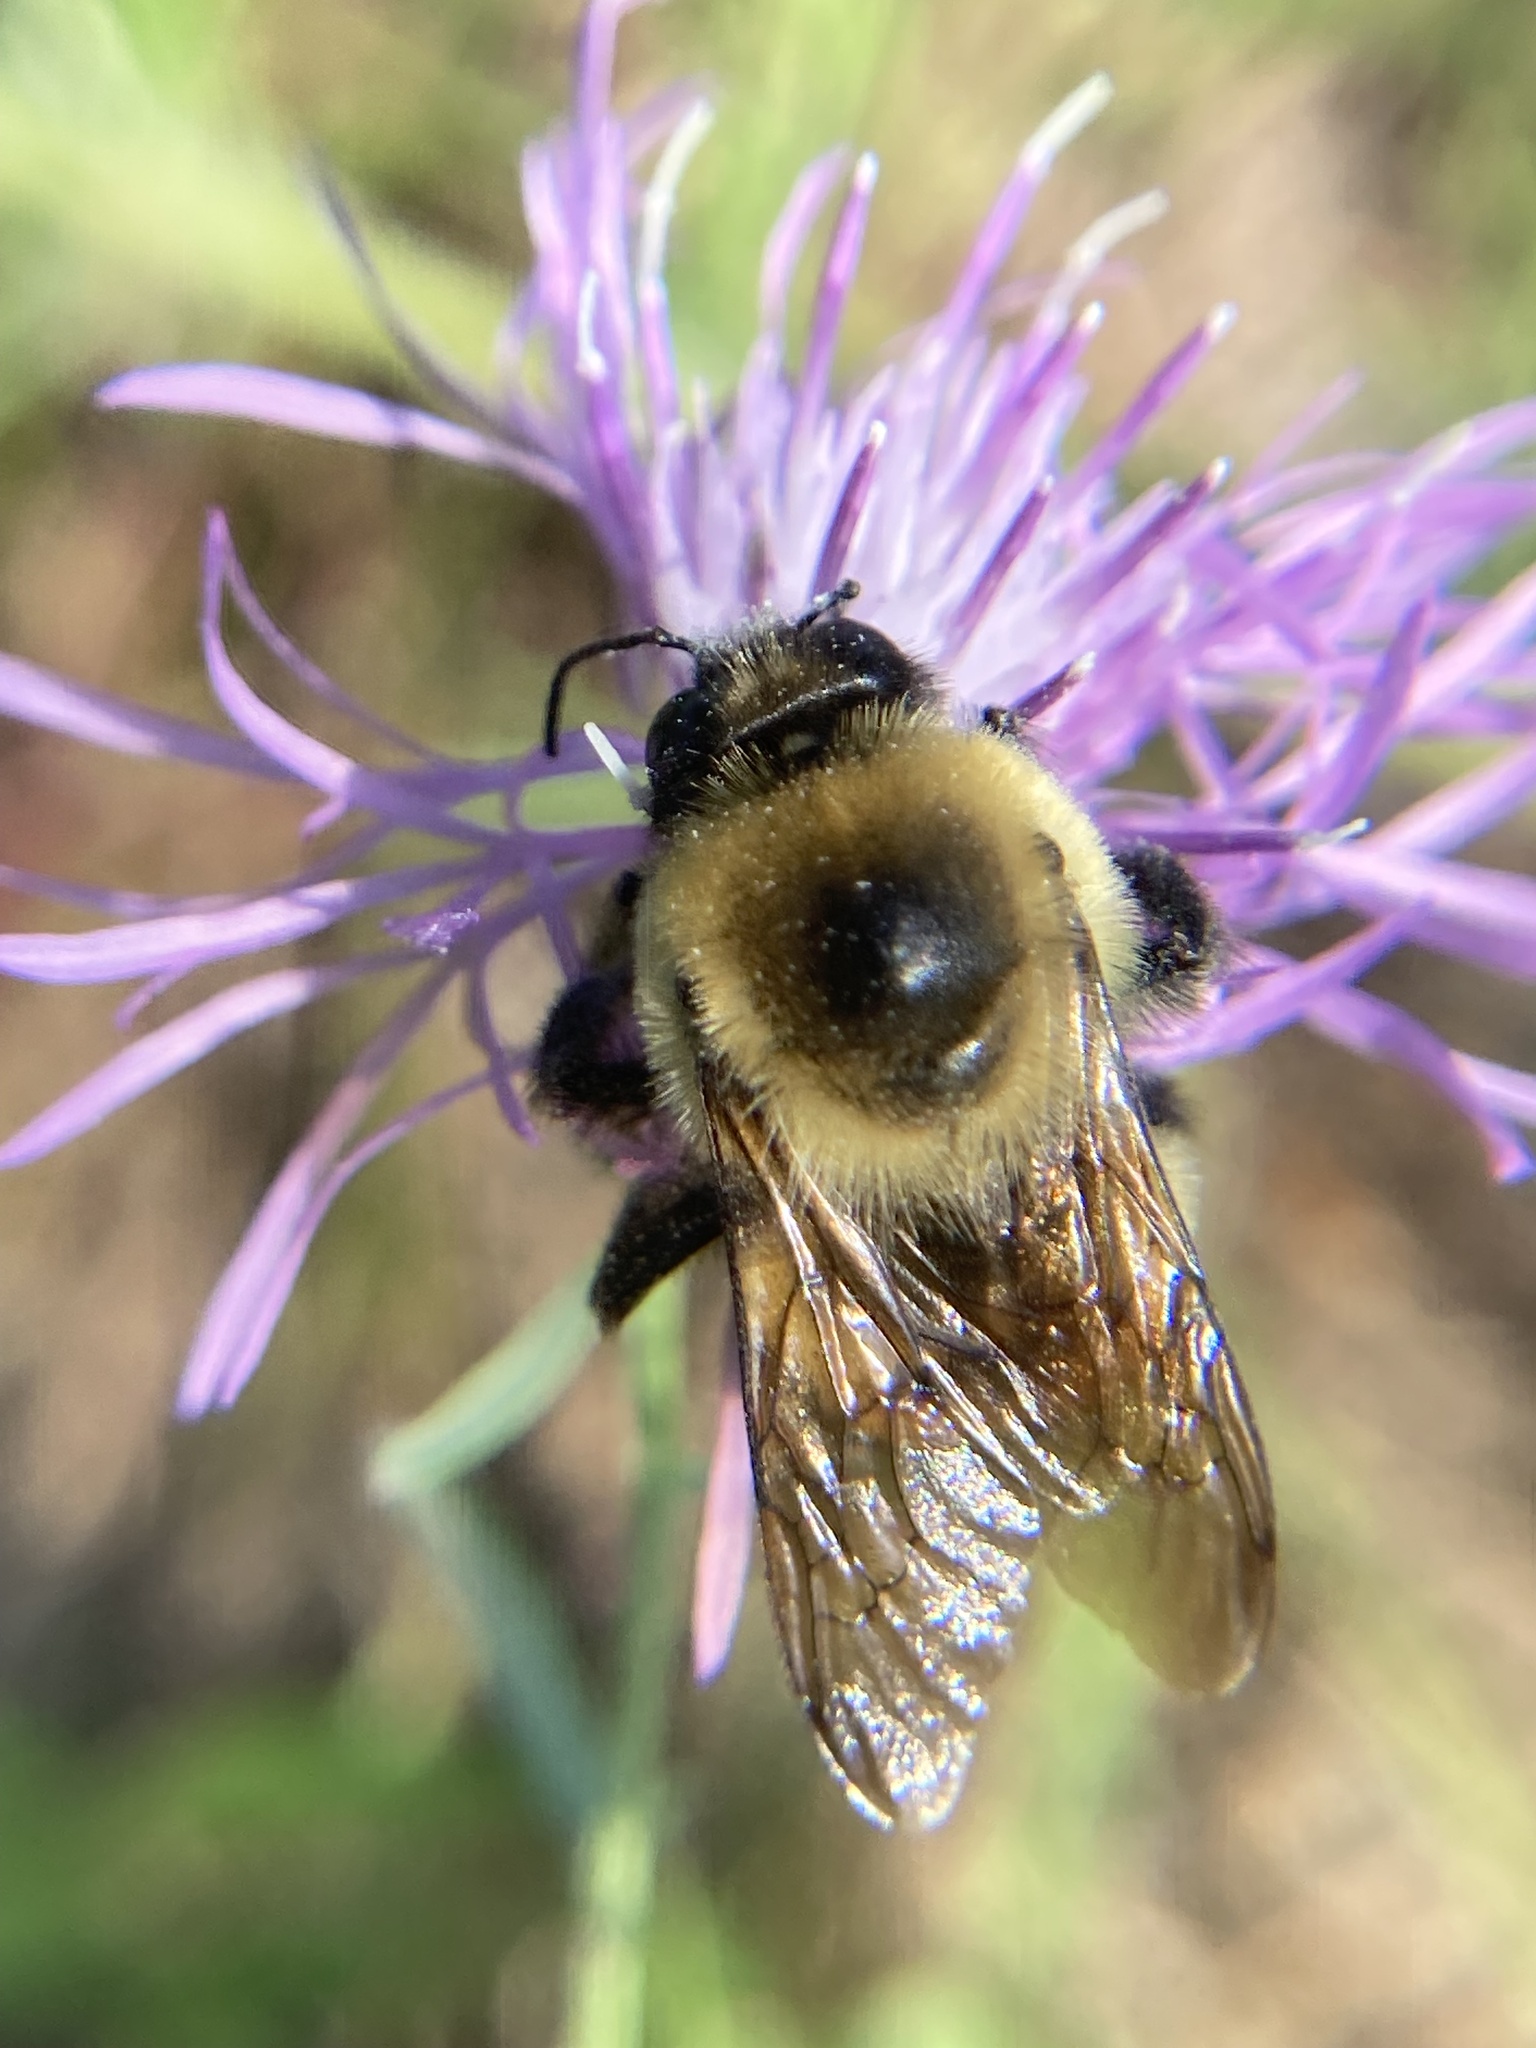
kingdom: Animalia
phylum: Arthropoda
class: Insecta
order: Hymenoptera
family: Apidae
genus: Bombus
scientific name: Bombus griseocollis
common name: Brown-belted bumble bee
